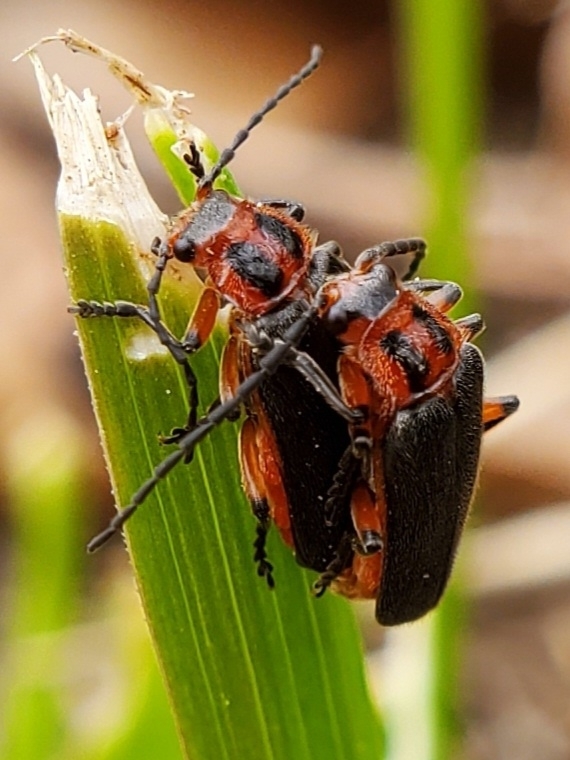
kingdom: Animalia
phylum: Arthropoda
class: Insecta
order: Coleoptera
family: Cantharidae
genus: Atalantycha
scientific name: Atalantycha bilineata
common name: Two-lined leatherwing
